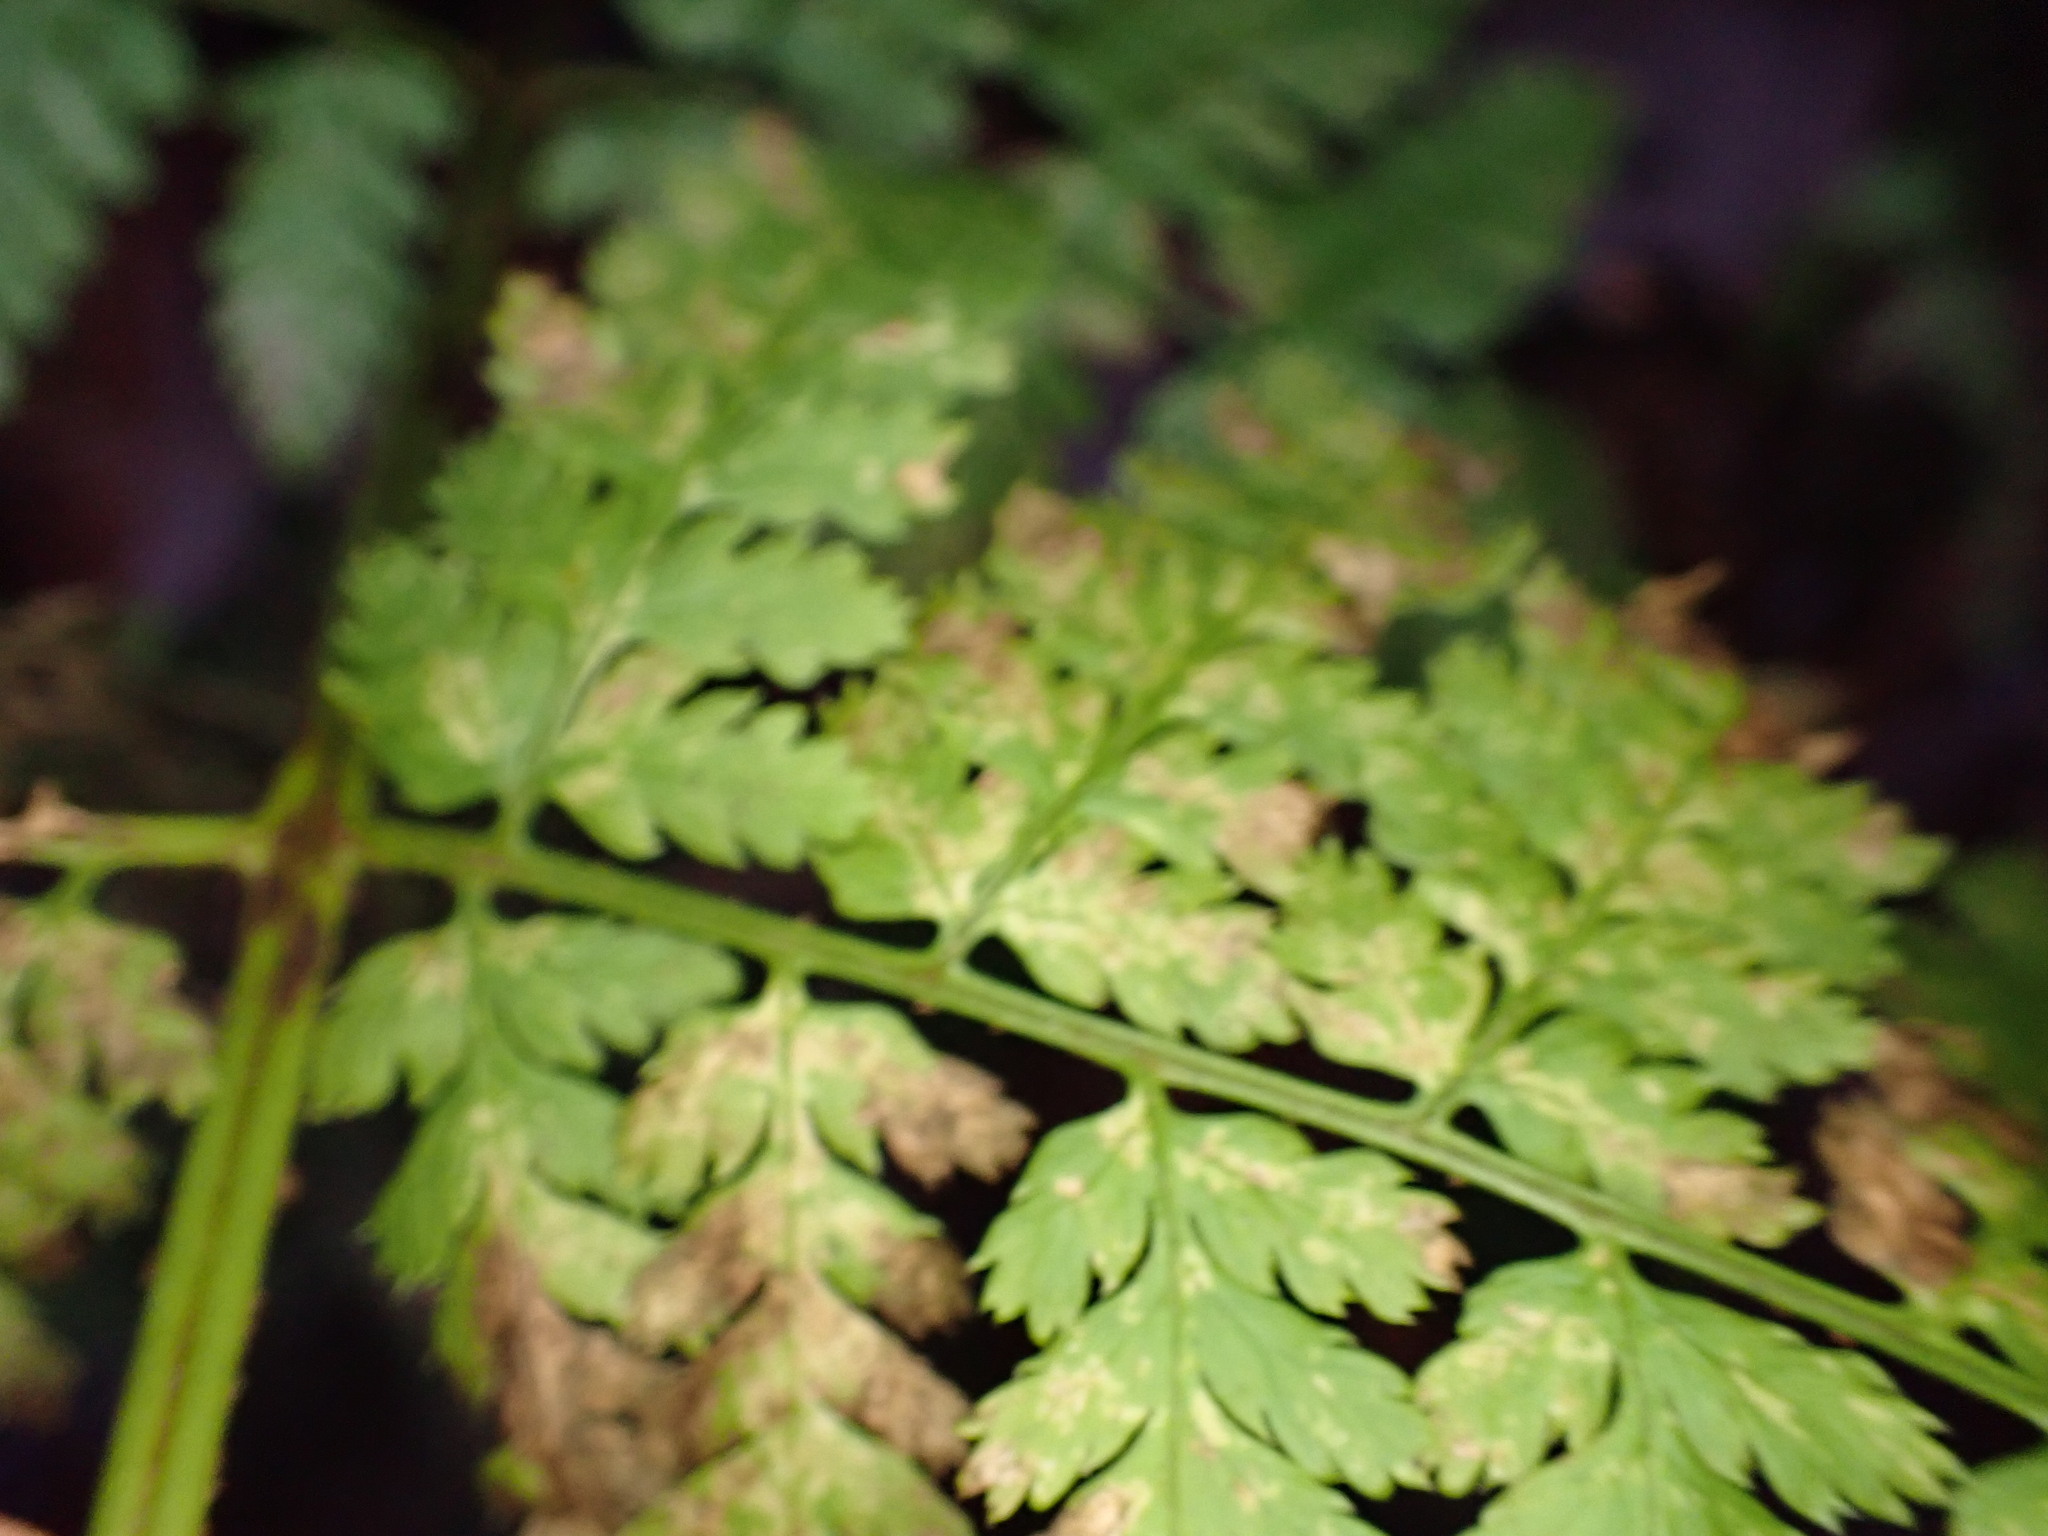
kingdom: Plantae
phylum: Tracheophyta
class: Polypodiopsida
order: Polypodiales
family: Dryopteridaceae
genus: Dryopteris
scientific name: Dryopteris expansa
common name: Northern buckler fern
